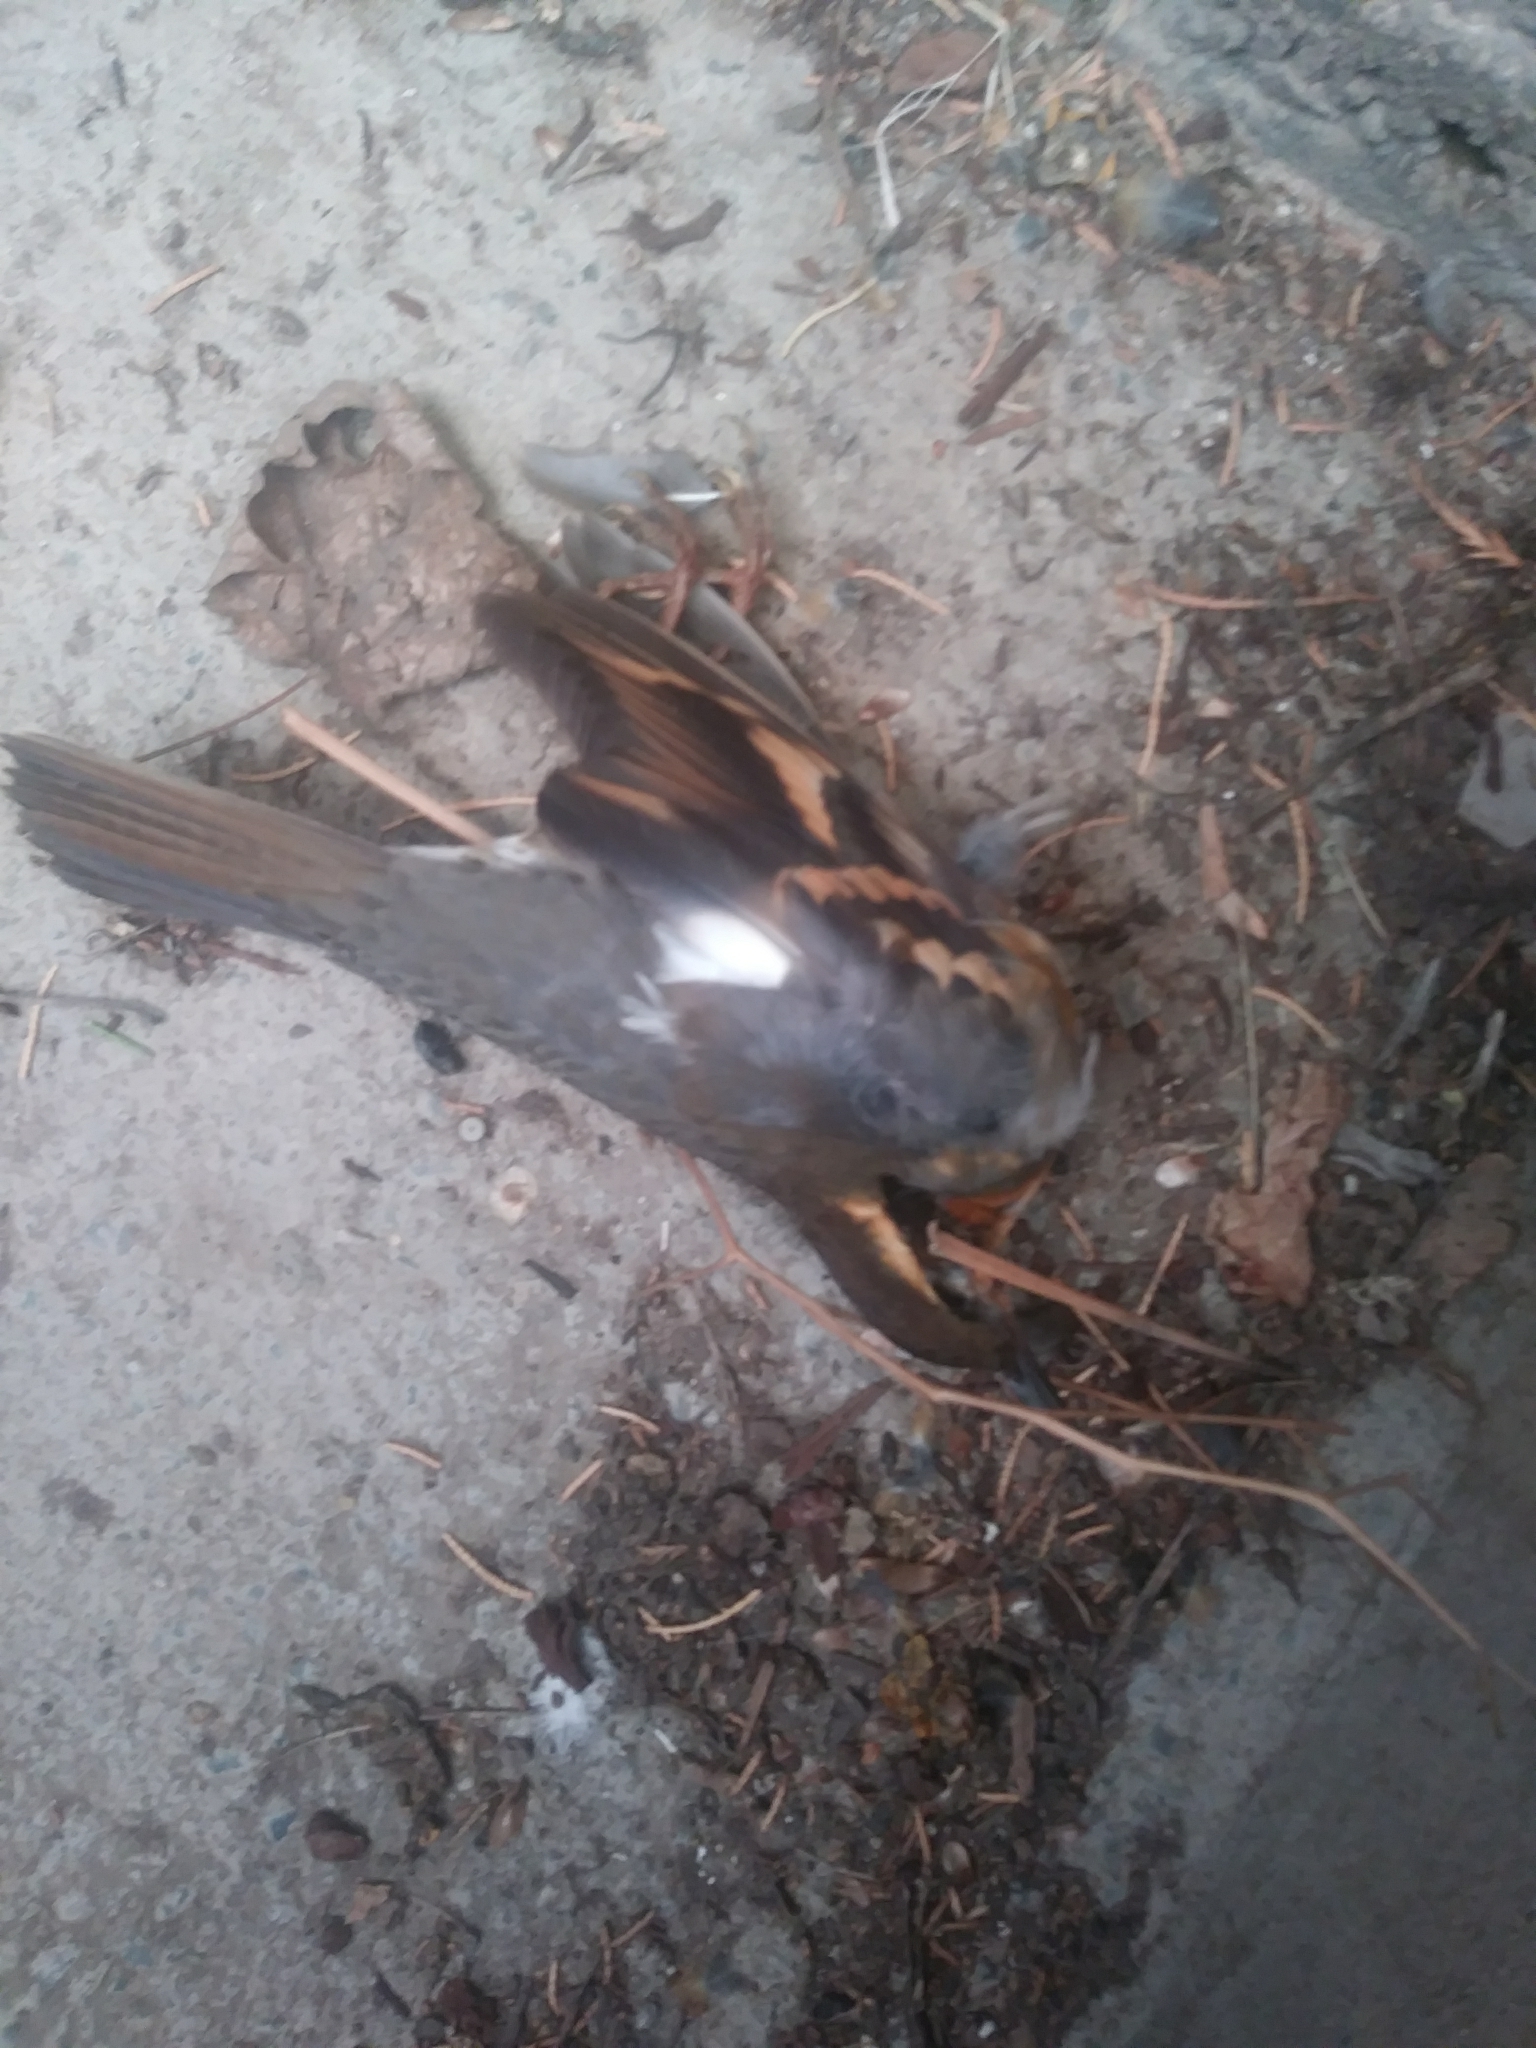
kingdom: Animalia
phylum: Chordata
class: Aves
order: Passeriformes
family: Turdidae
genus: Ixoreus
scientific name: Ixoreus naevius
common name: Varied thrush
